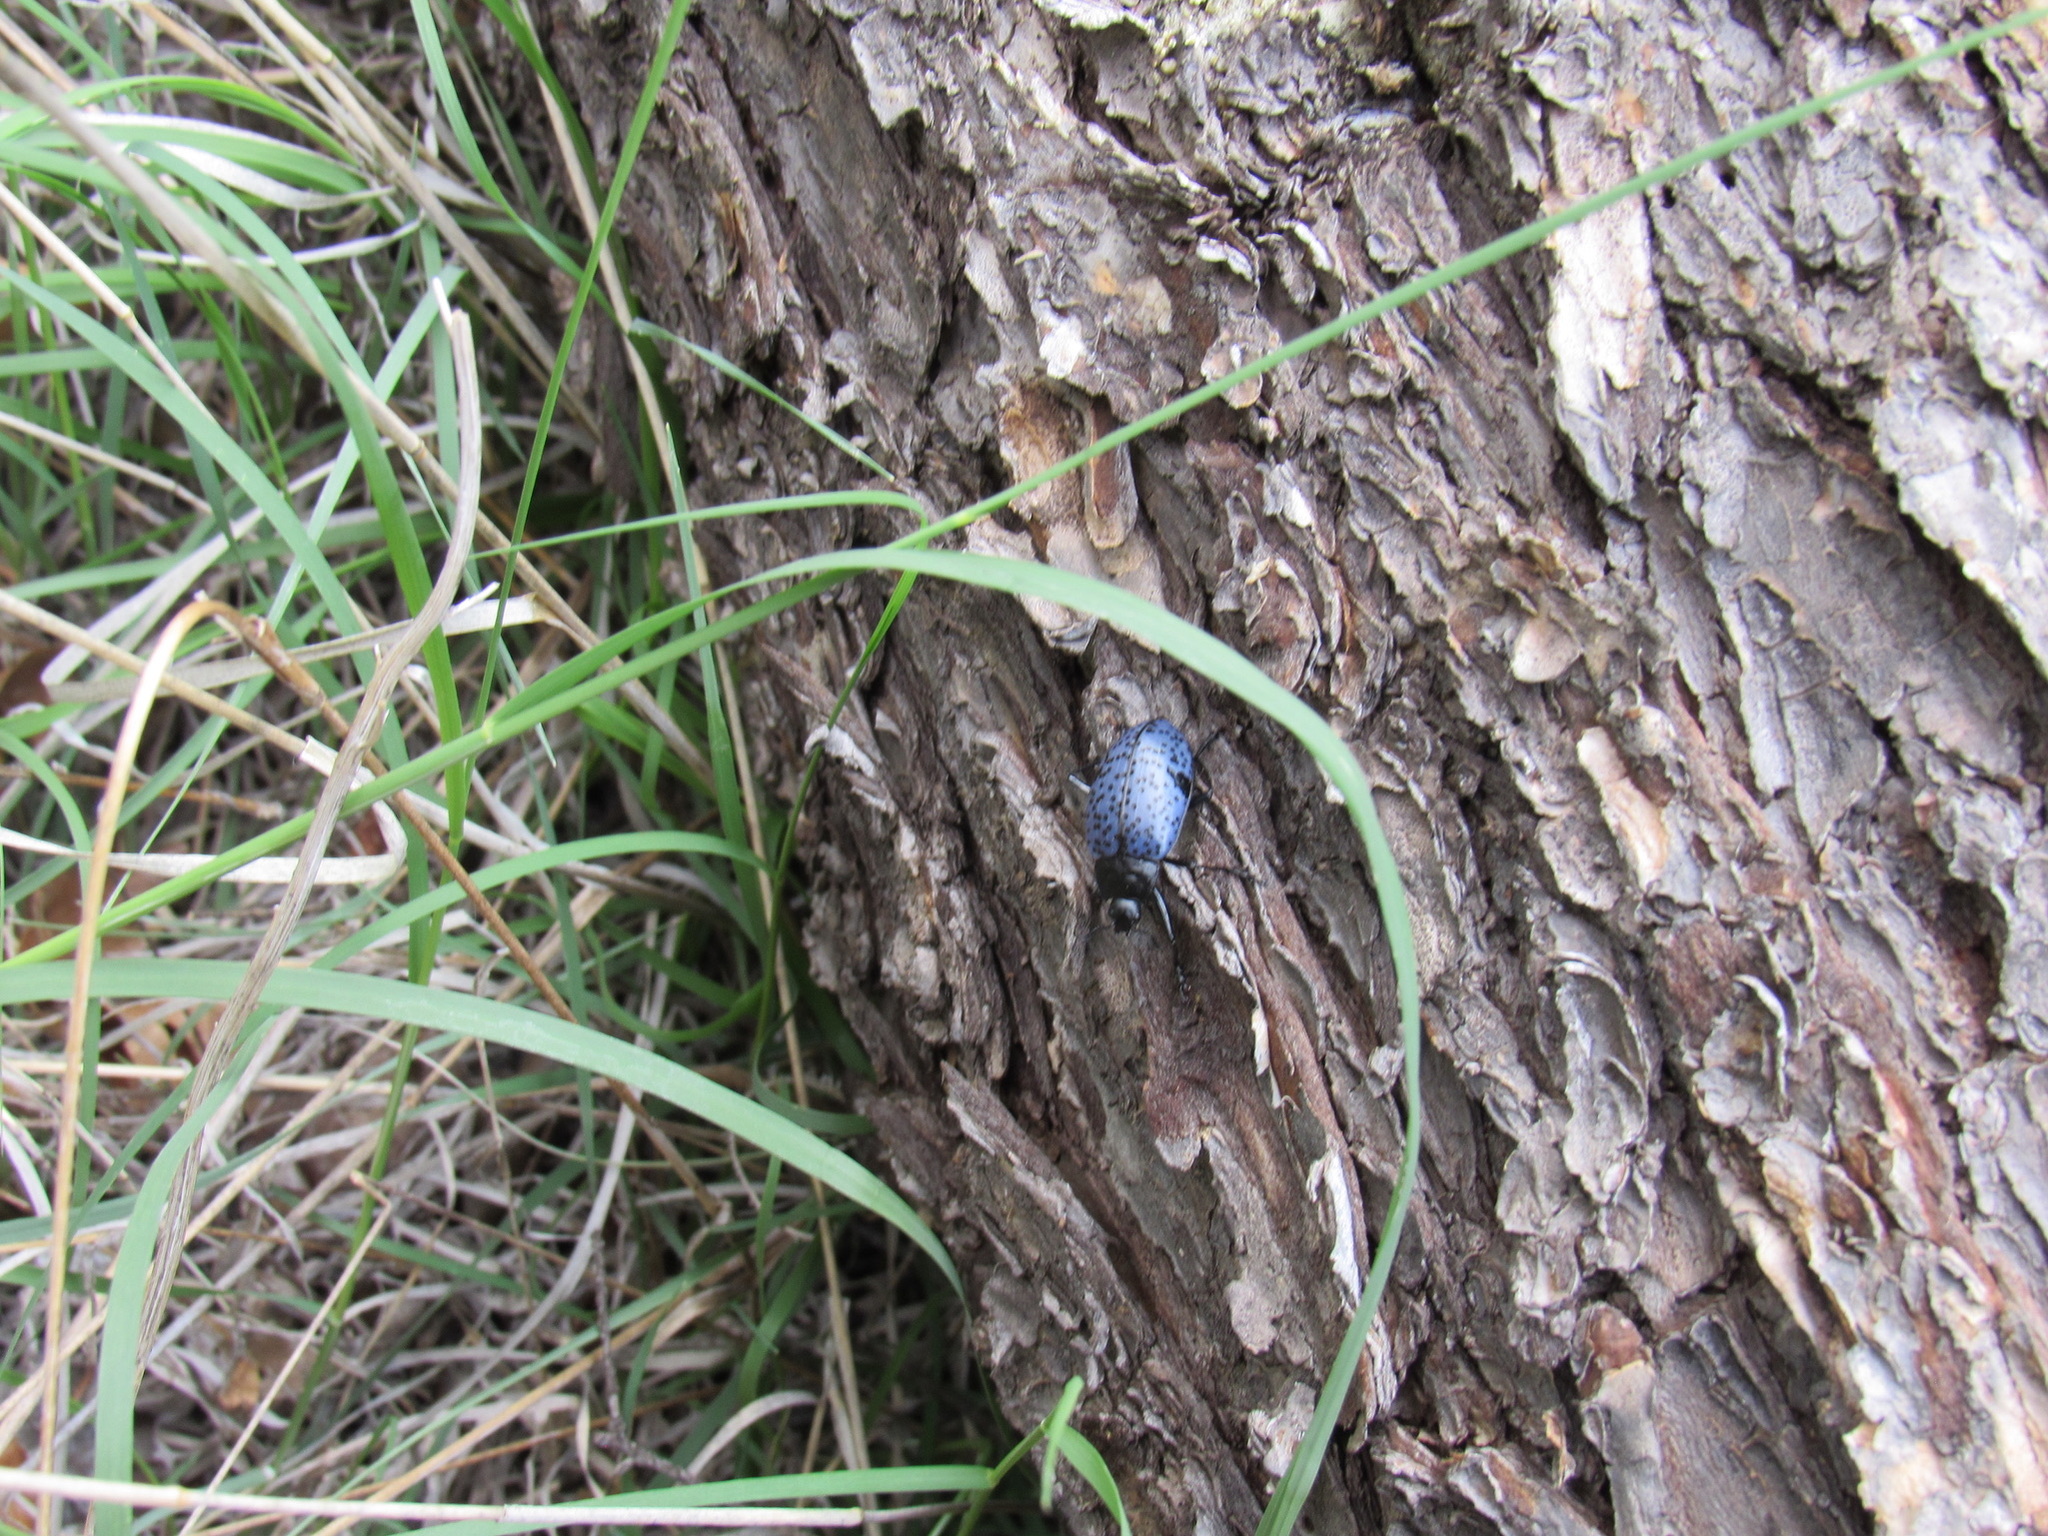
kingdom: Animalia
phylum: Arthropoda
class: Insecta
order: Coleoptera
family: Erotylidae
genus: Gibbifer
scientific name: Gibbifer californicus
